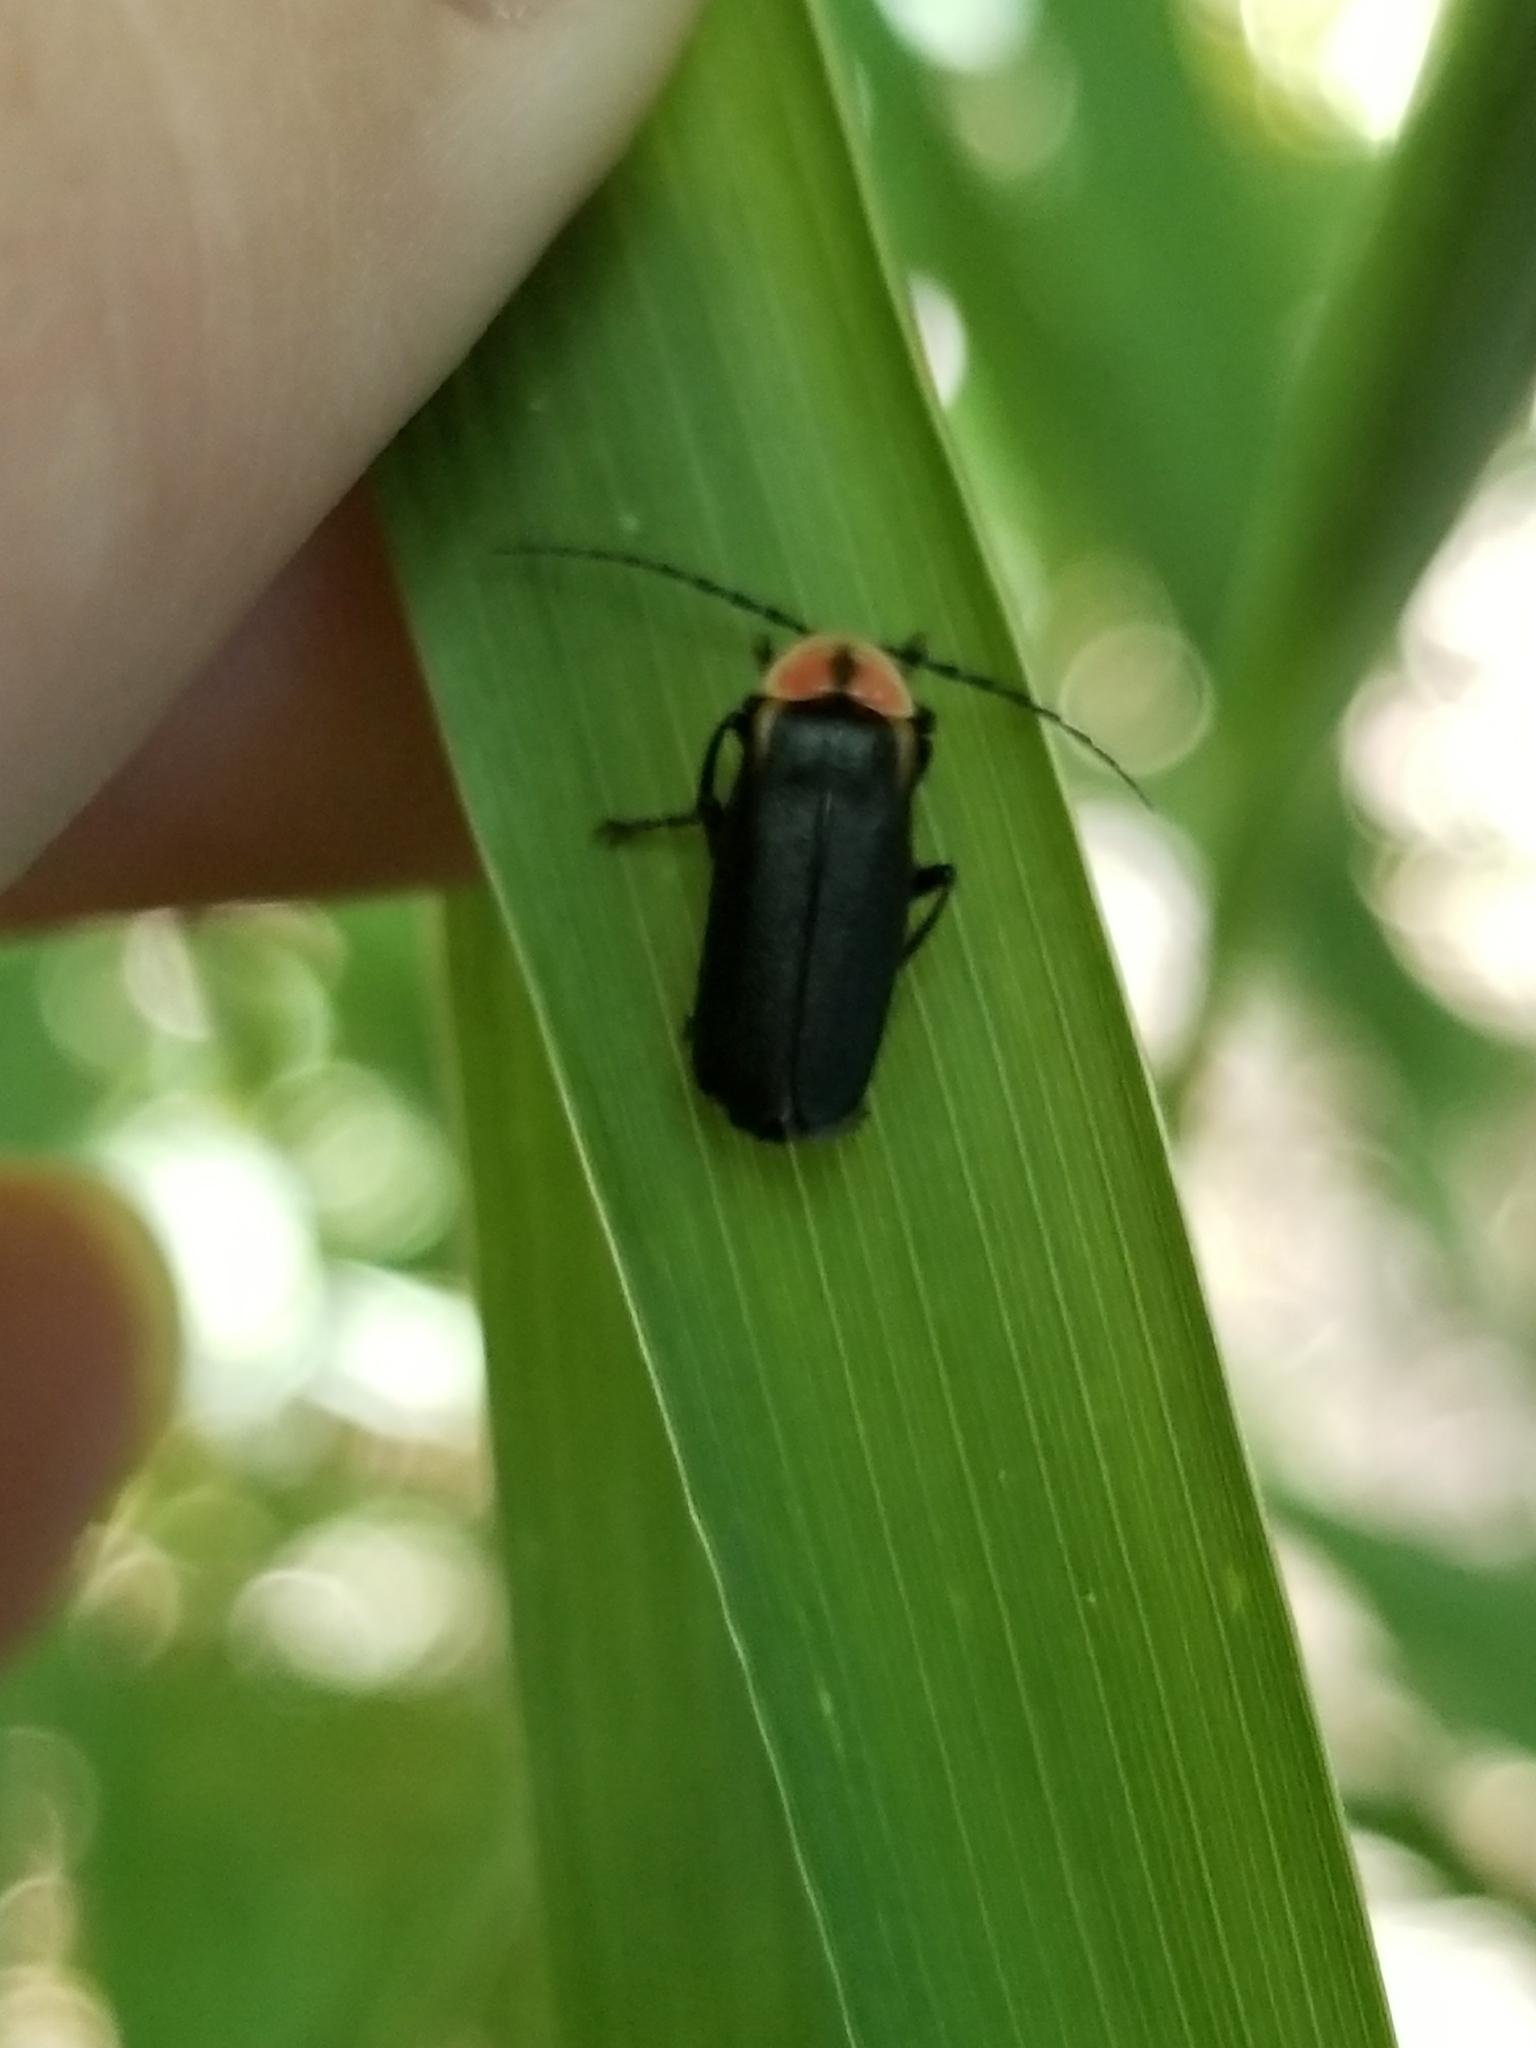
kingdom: Animalia
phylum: Arthropoda
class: Insecta
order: Coleoptera
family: Cantharidae
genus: Discodon
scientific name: Discodon planicolle
